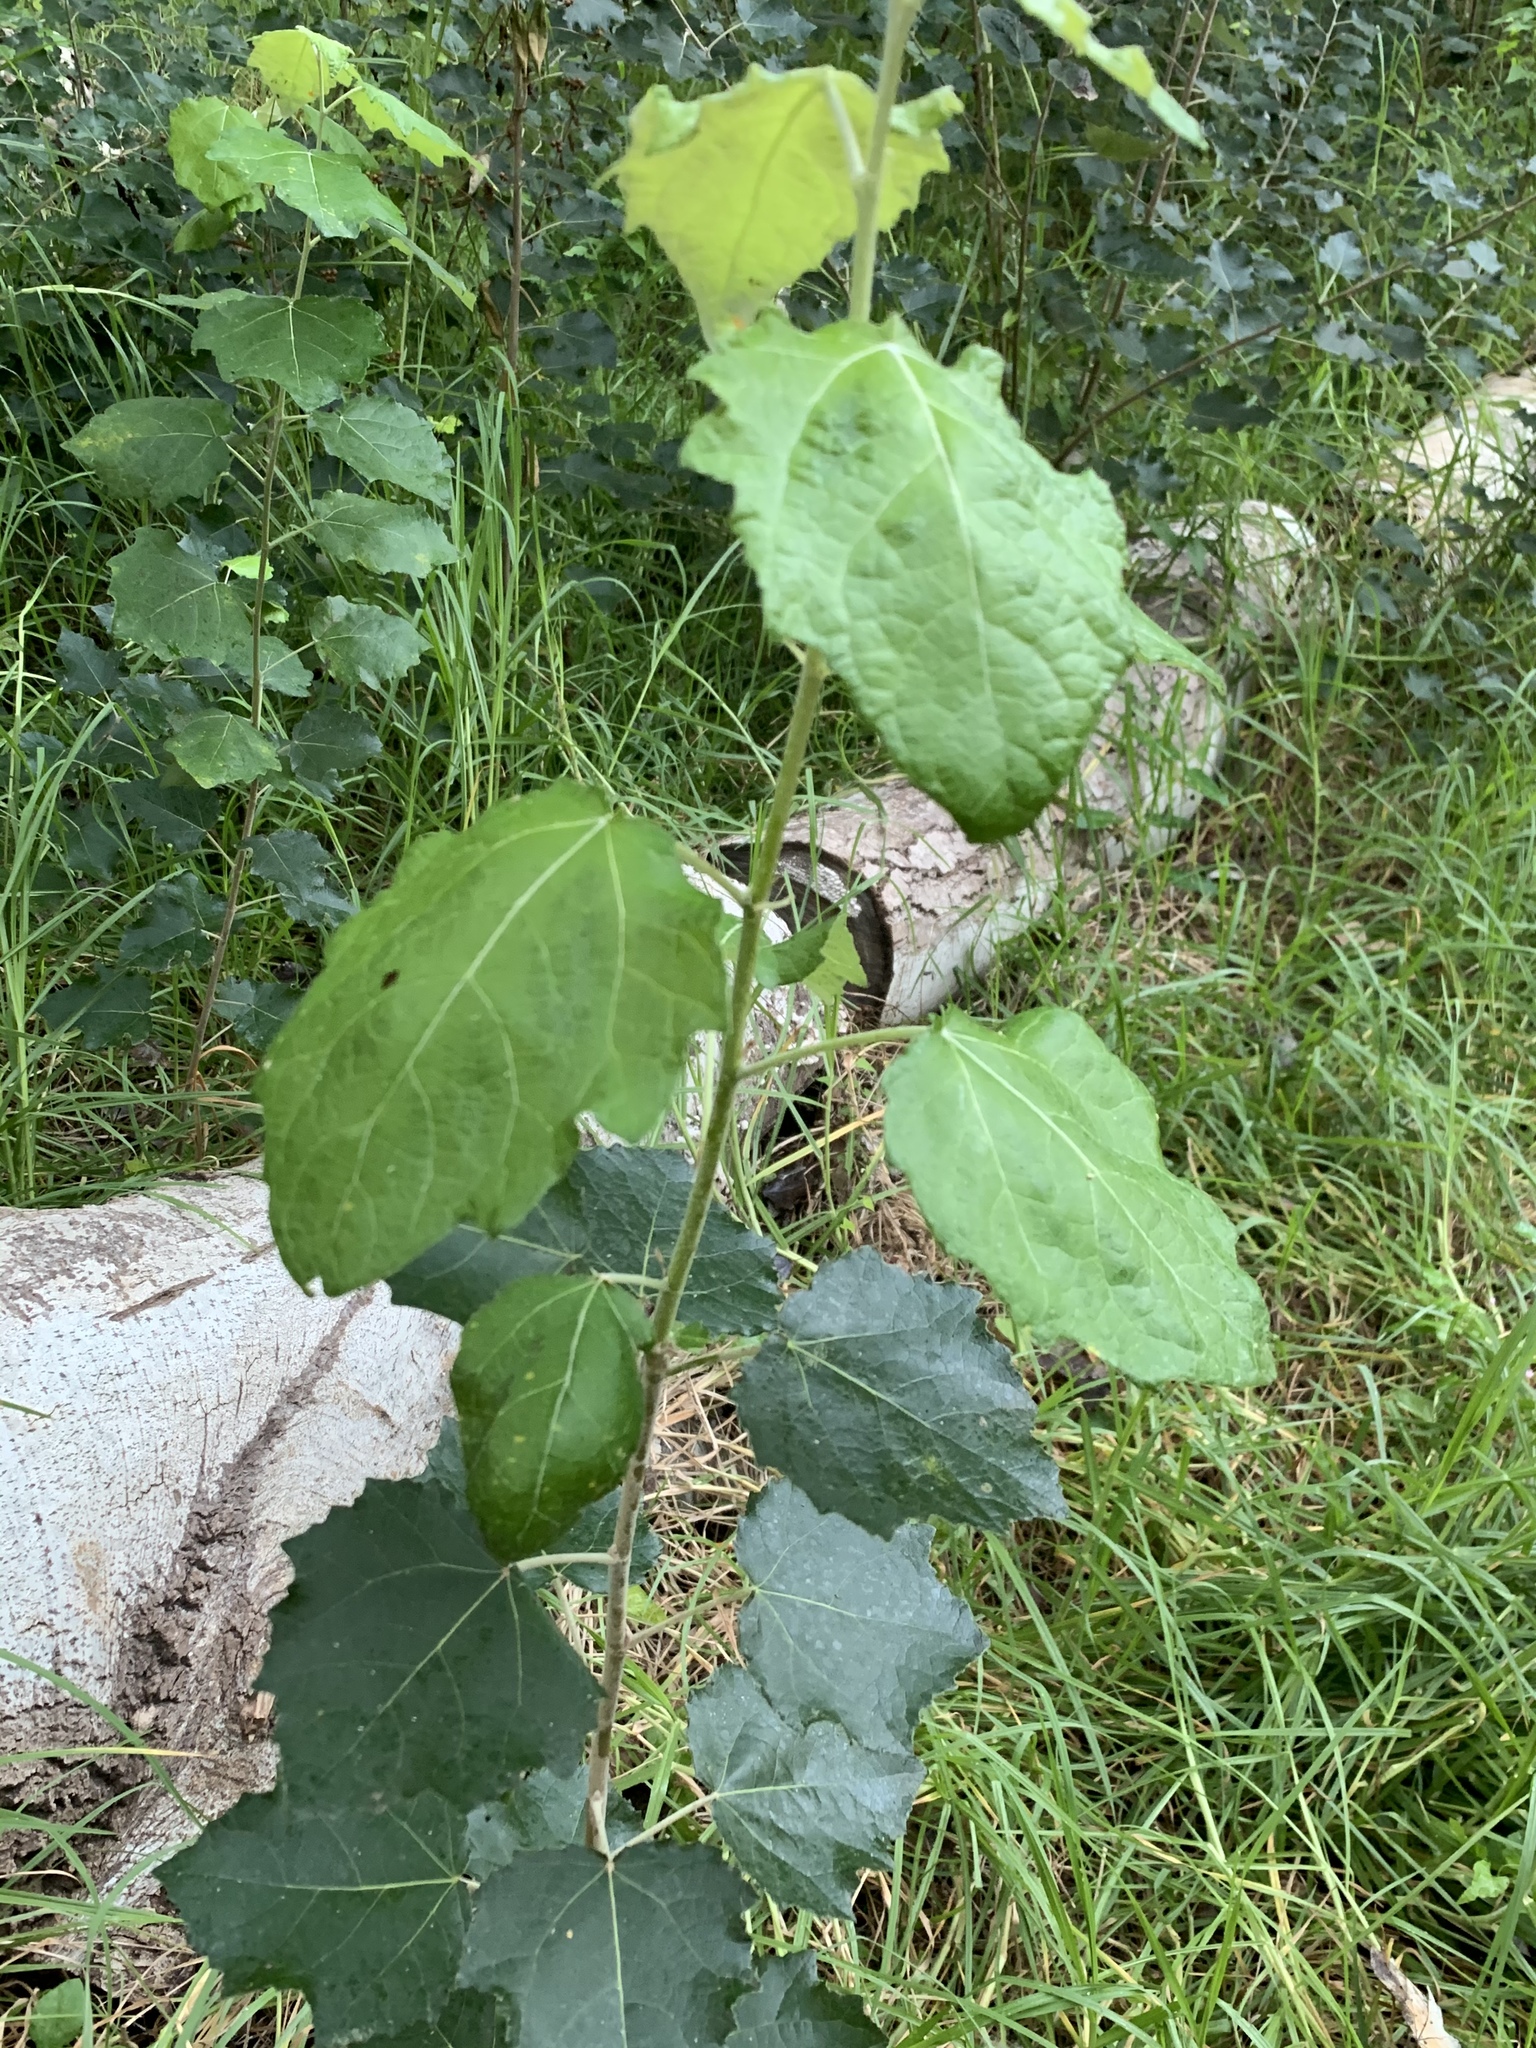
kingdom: Plantae
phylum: Tracheophyta
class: Magnoliopsida
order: Malpighiales
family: Salicaceae
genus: Populus
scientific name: Populus canescens
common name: Gray poplar
